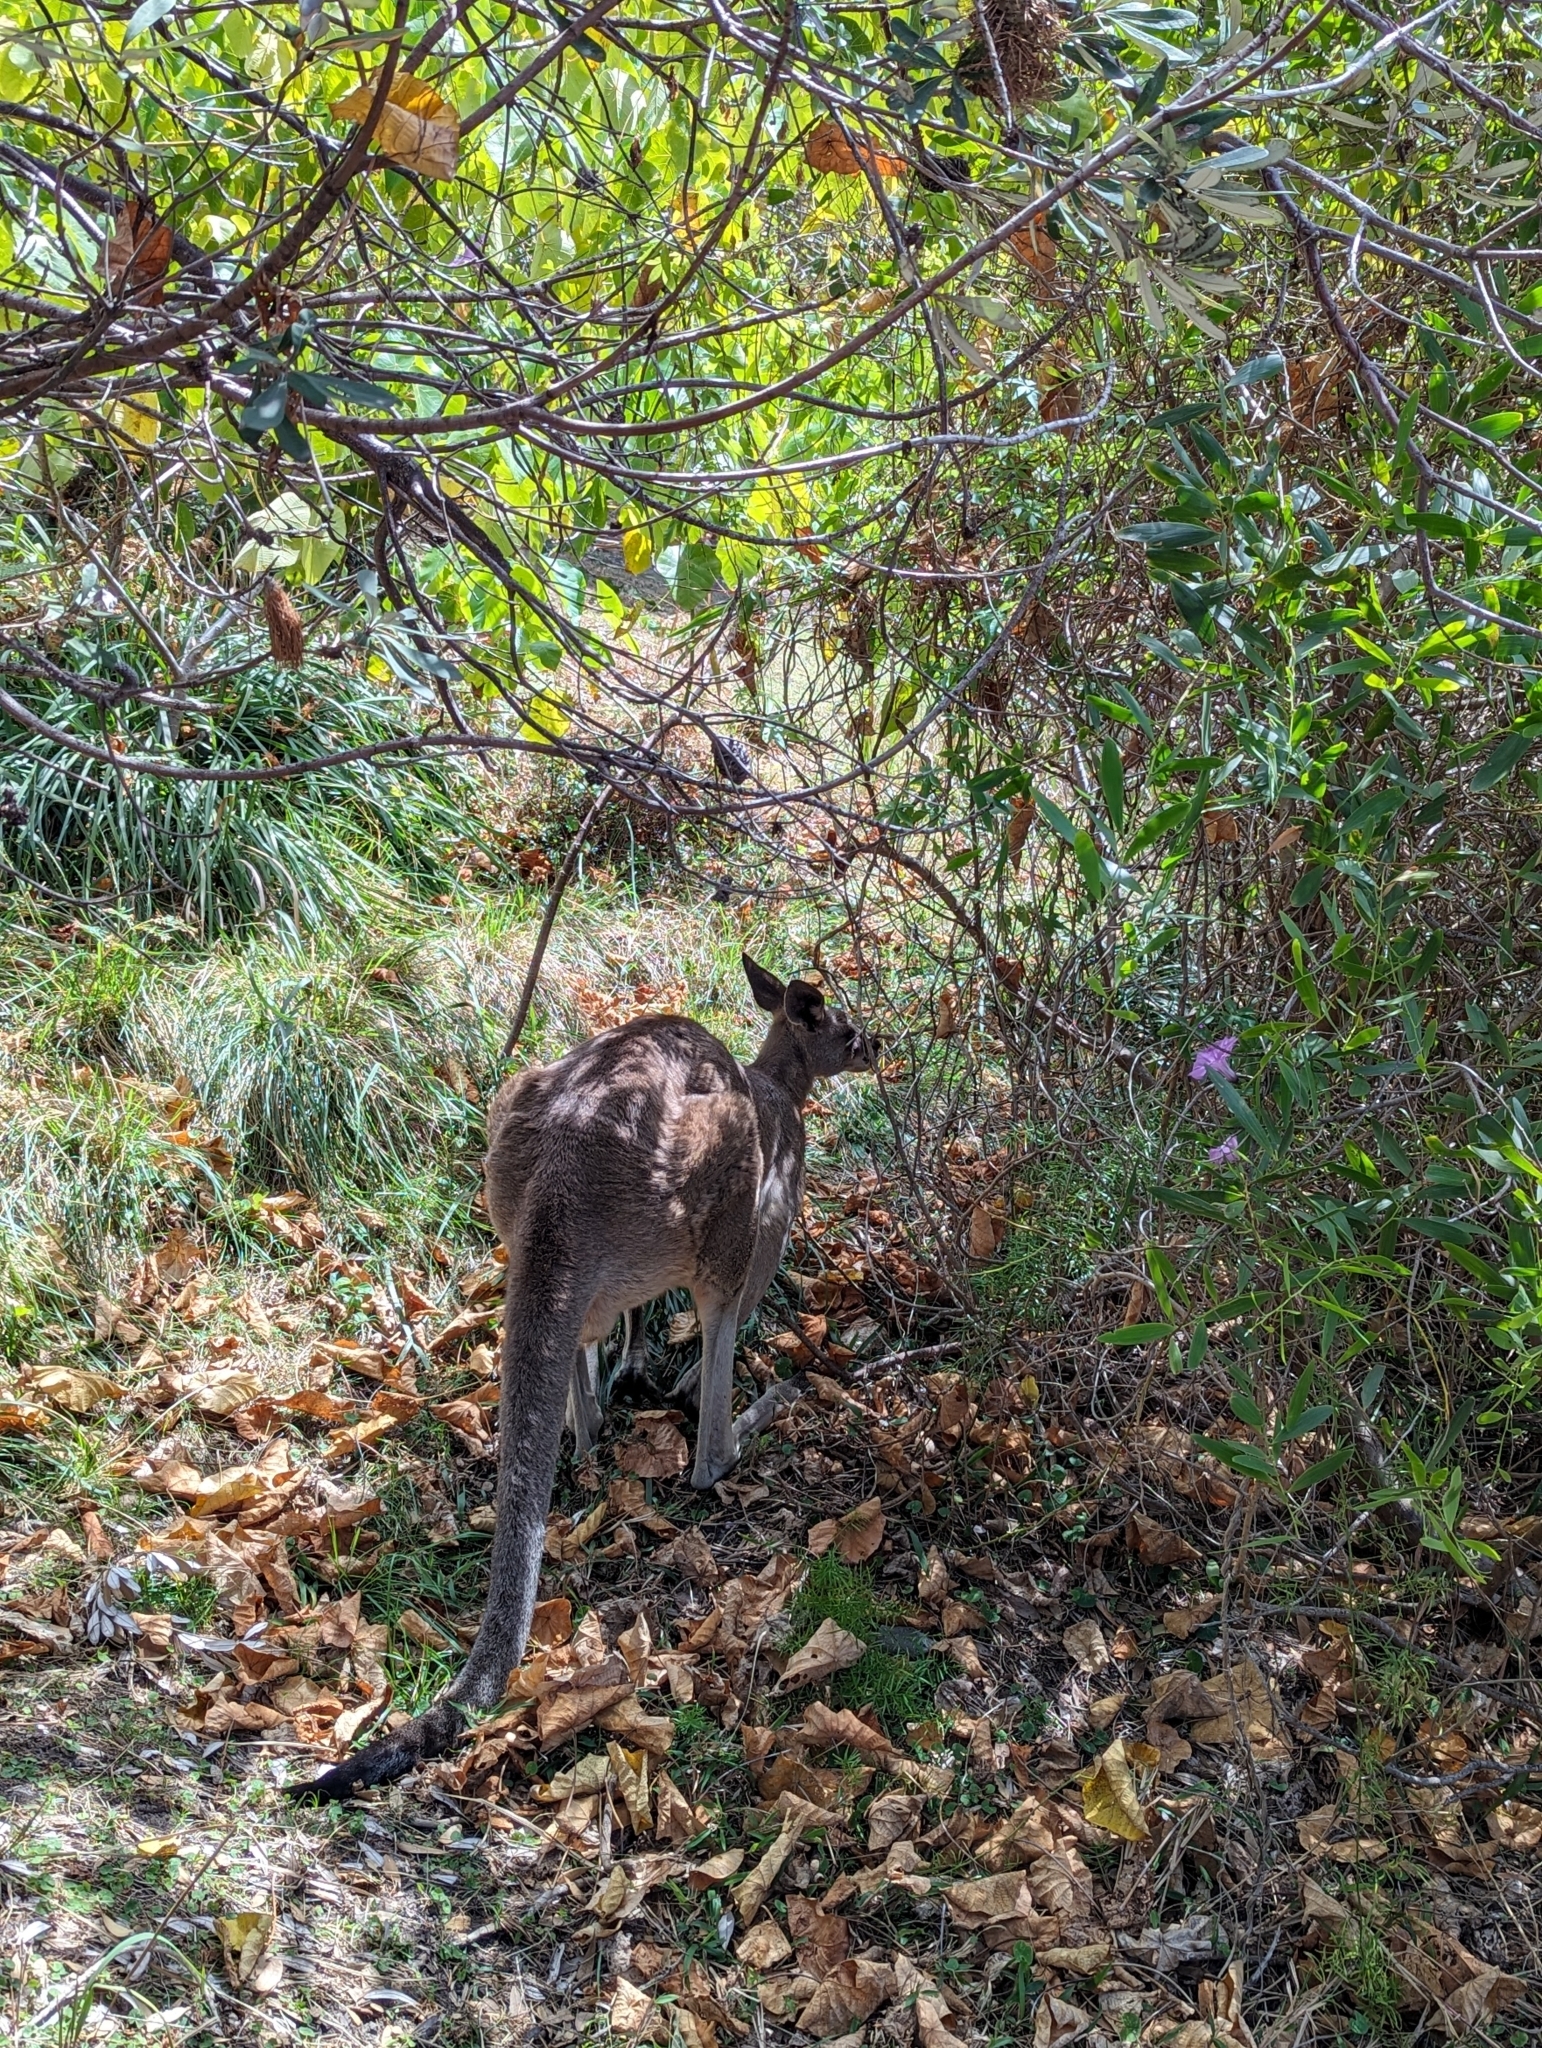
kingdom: Animalia
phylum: Chordata
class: Mammalia
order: Diprotodontia
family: Macropodidae
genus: Macropus
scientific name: Macropus giganteus
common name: Eastern grey kangaroo
